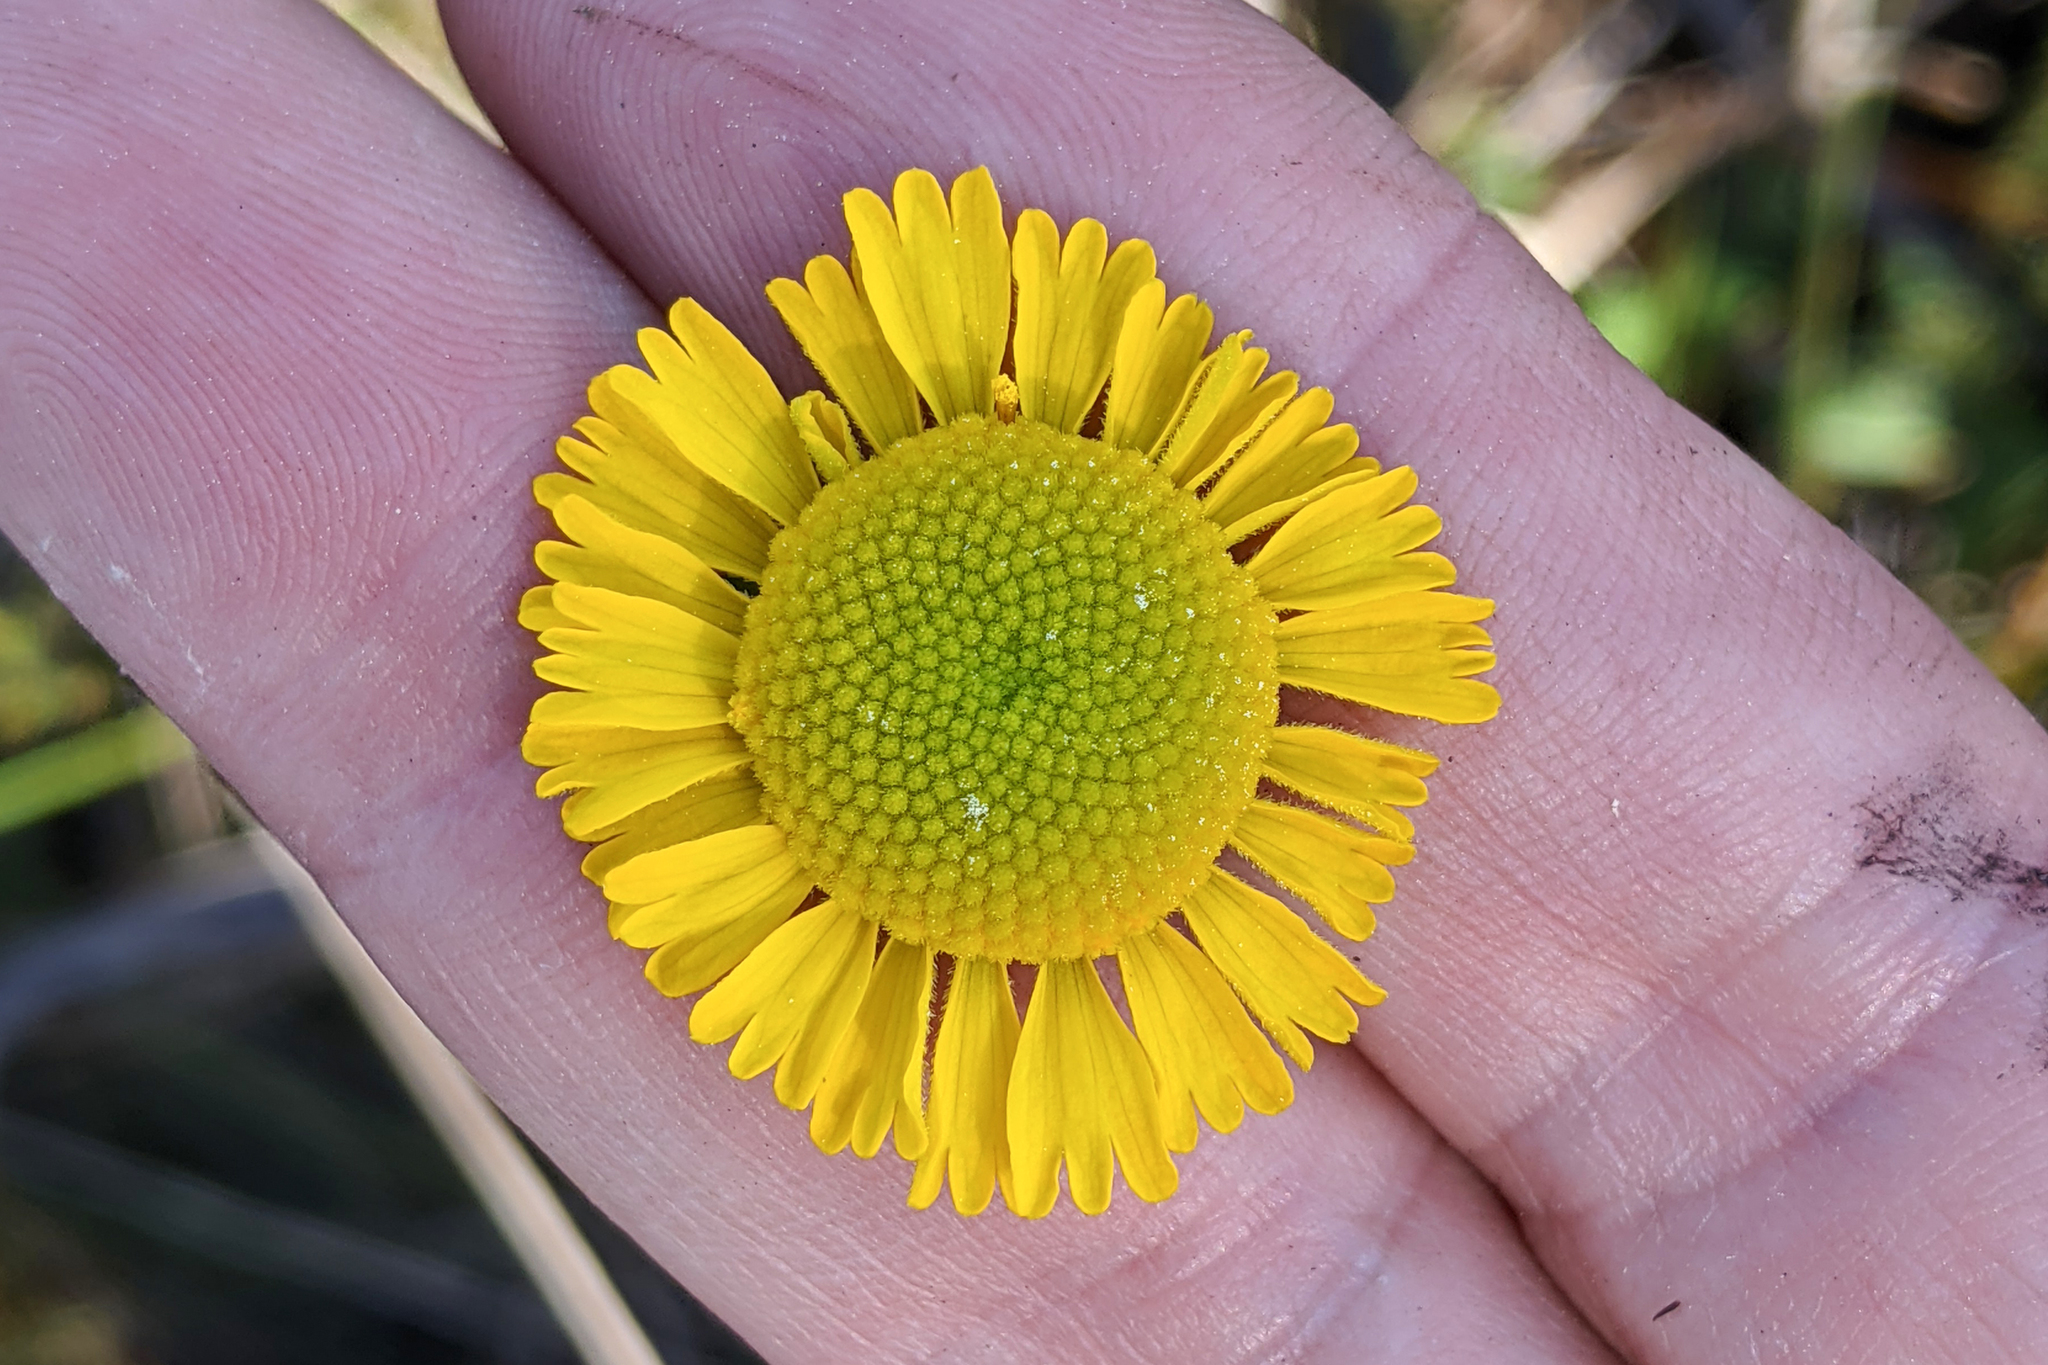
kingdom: Plantae
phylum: Tracheophyta
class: Magnoliopsida
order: Asterales
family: Asteraceae
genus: Helenium
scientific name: Helenium vernale
